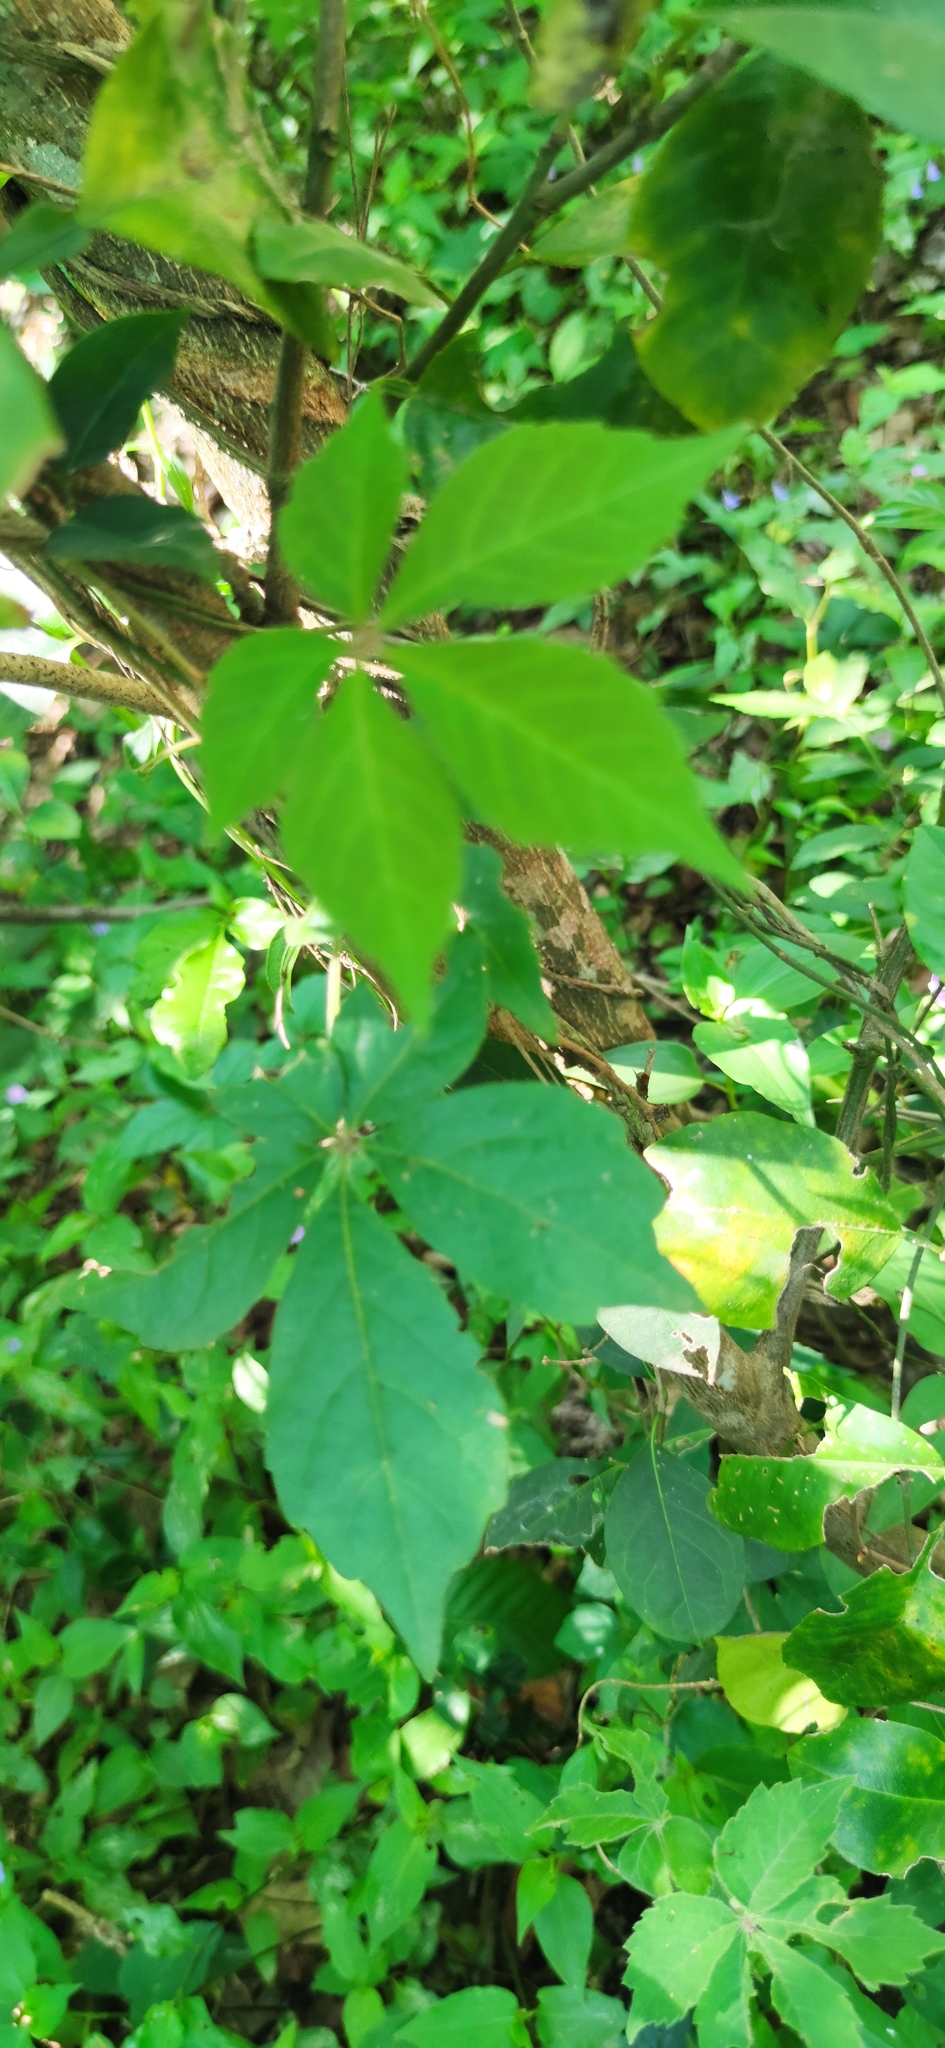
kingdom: Plantae
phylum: Tracheophyta
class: Magnoliopsida
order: Vitales
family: Vitaceae
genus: Parthenocissus
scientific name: Parthenocissus quinquefolia
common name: Virginia-creeper
